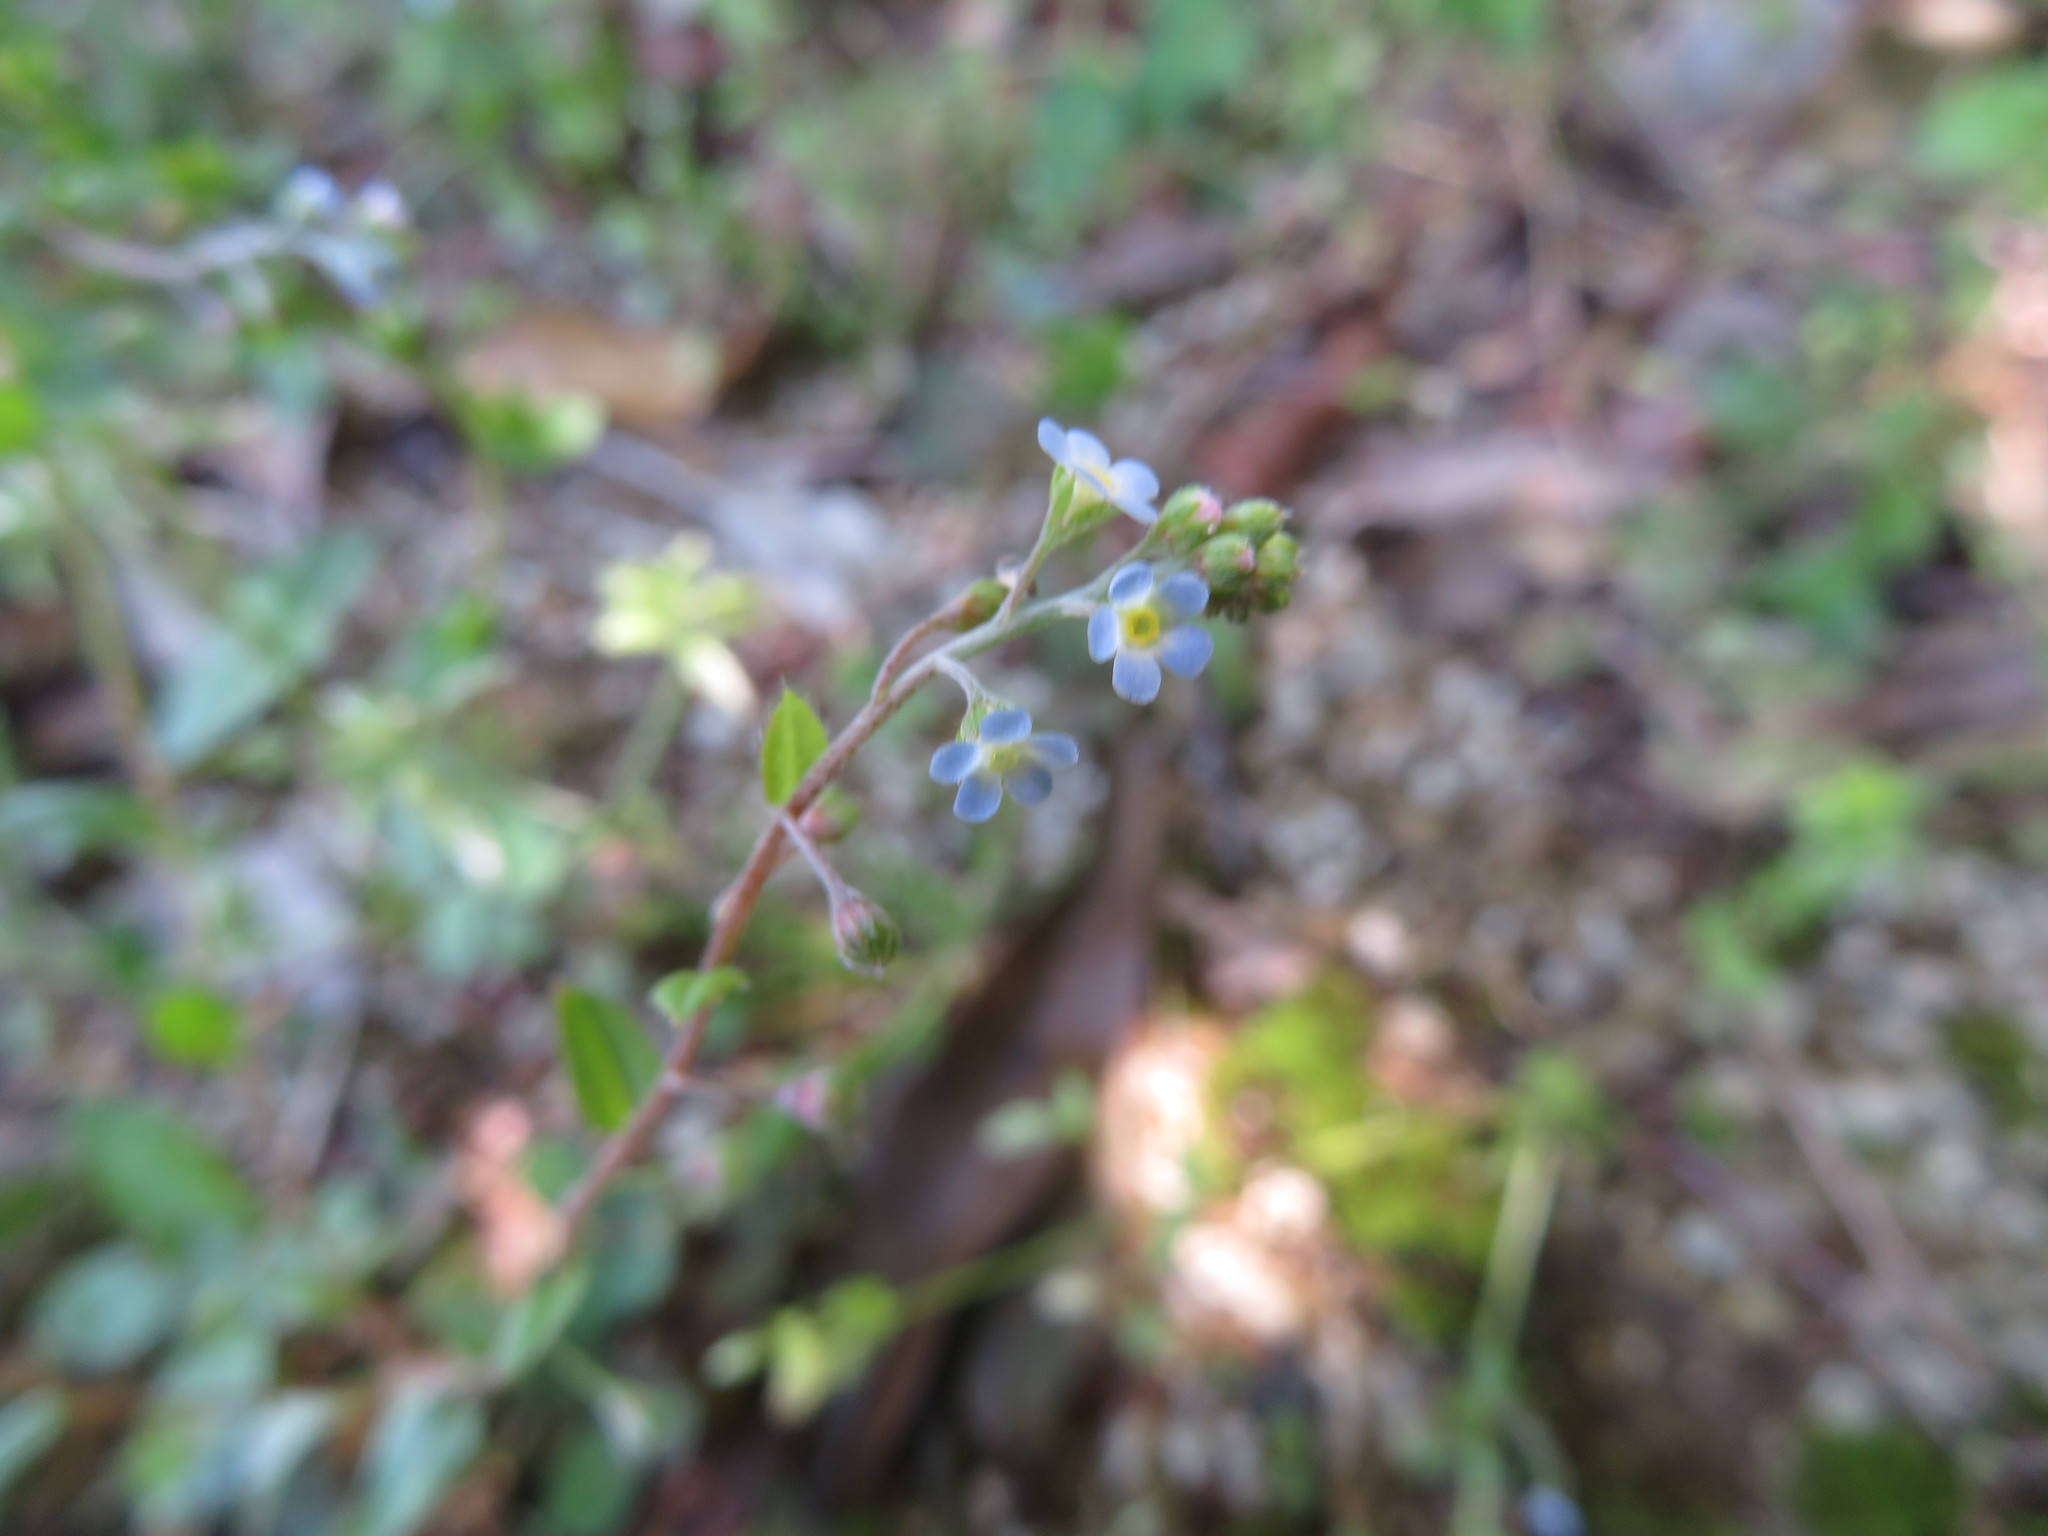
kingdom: Plantae
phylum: Tracheophyta
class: Magnoliopsida
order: Boraginales
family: Boraginaceae
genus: Trigonotis
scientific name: Trigonotis peduncularis
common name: Cucumber herb
